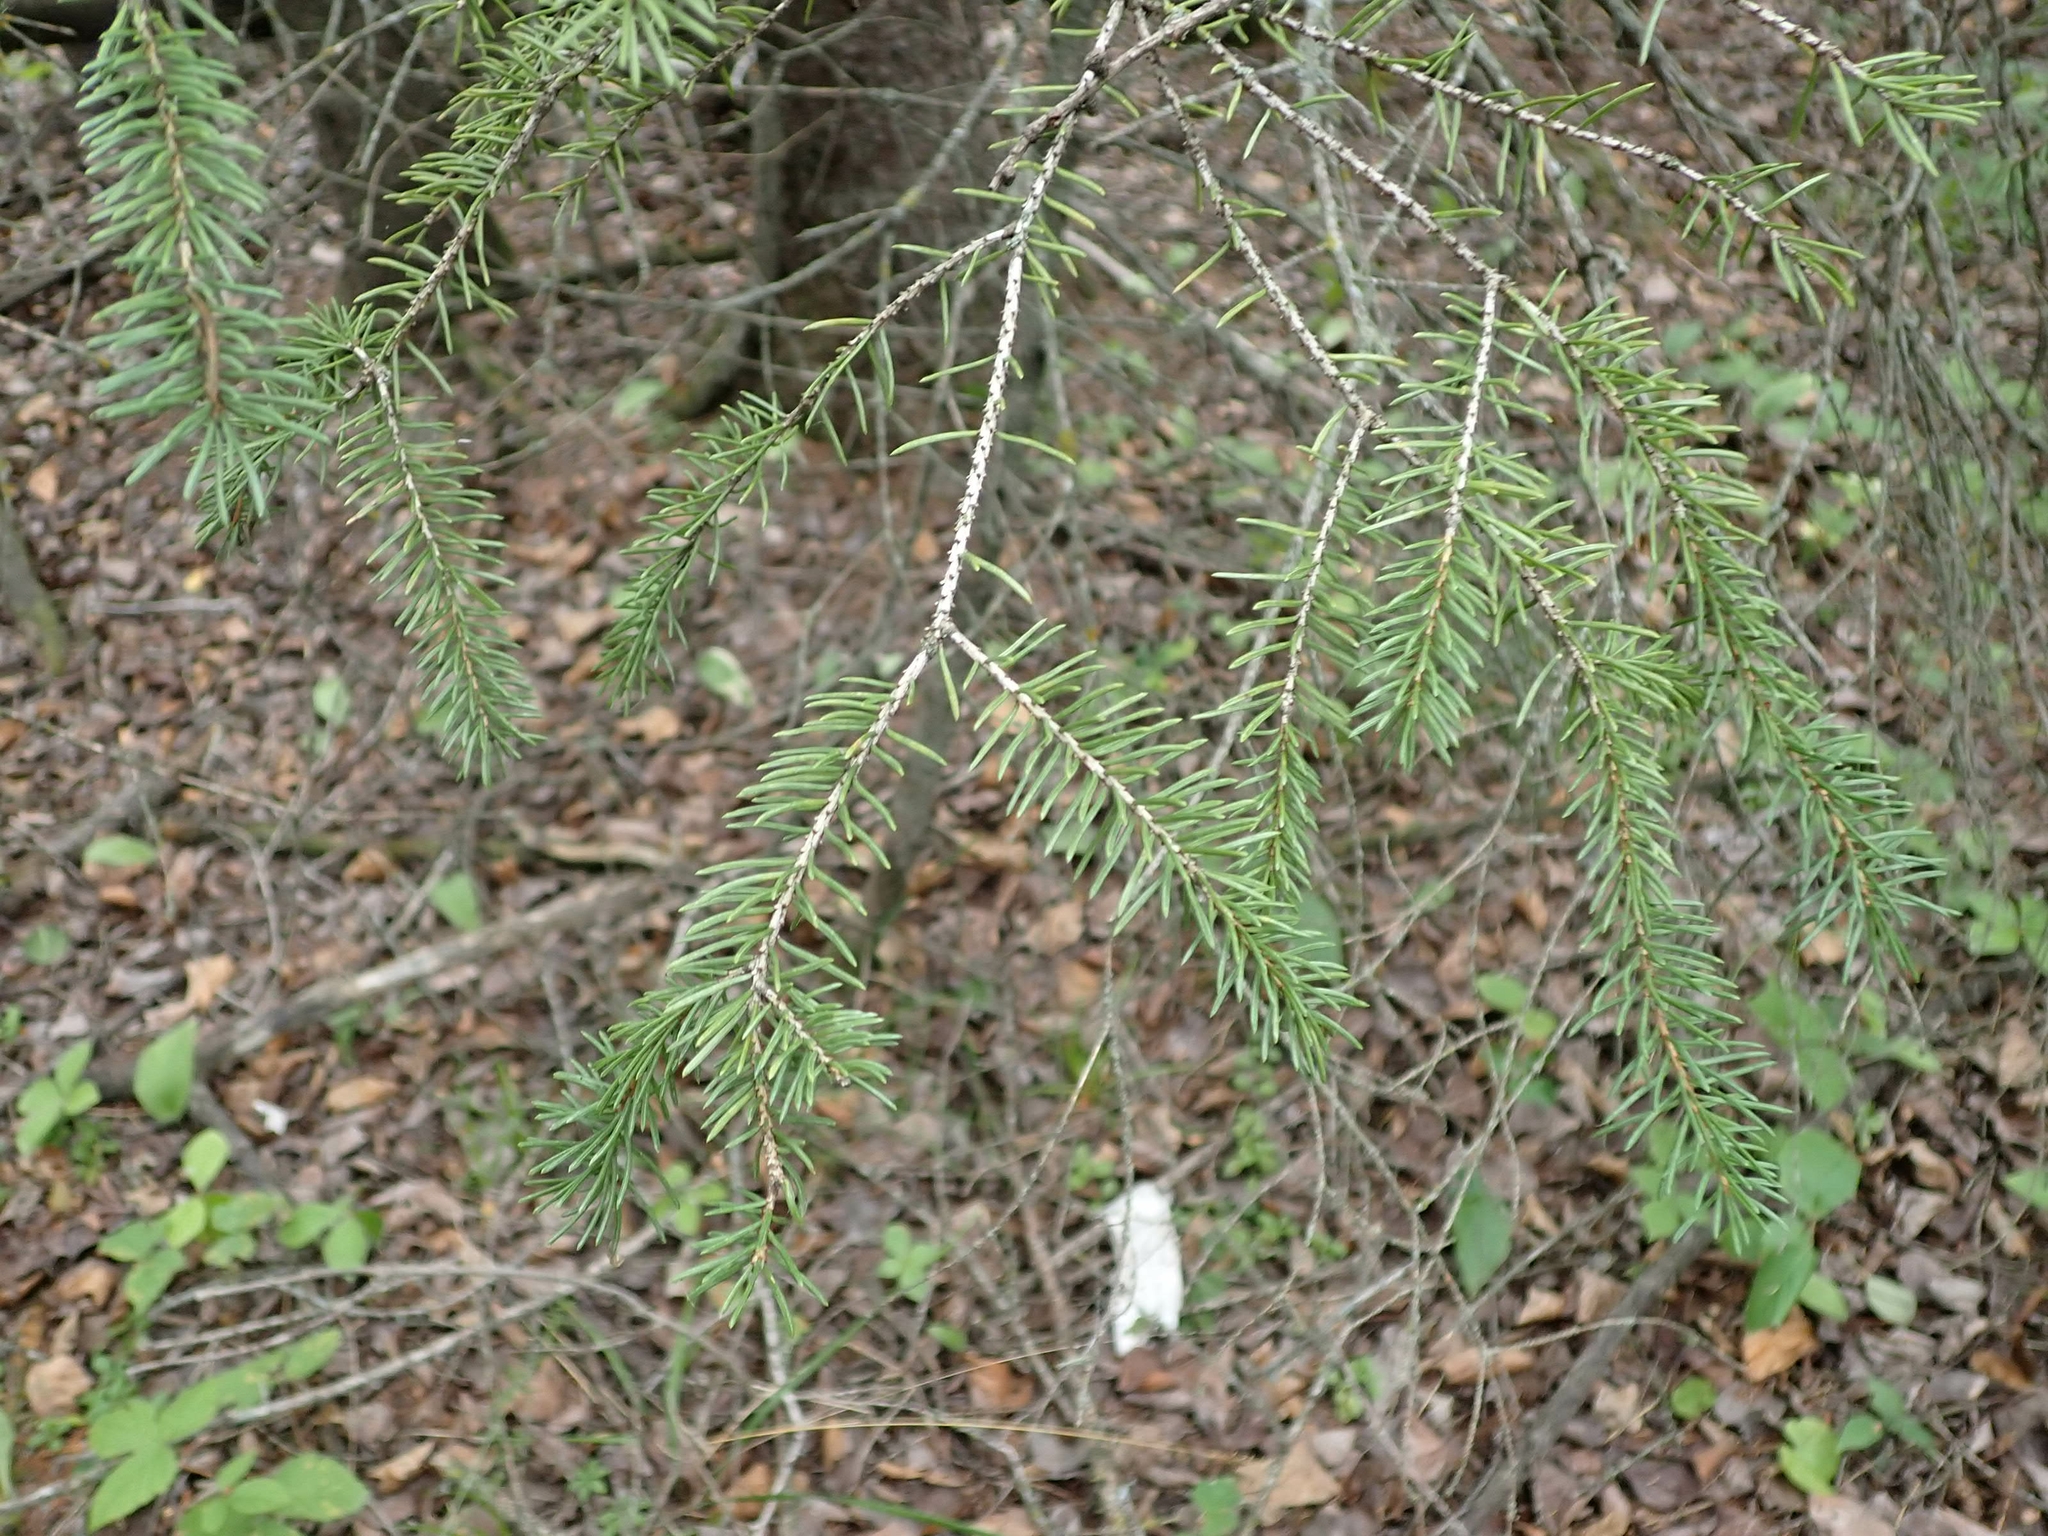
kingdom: Plantae
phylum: Tracheophyta
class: Pinopsida
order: Pinales
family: Pinaceae
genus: Picea
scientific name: Picea mariana
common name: Black spruce
